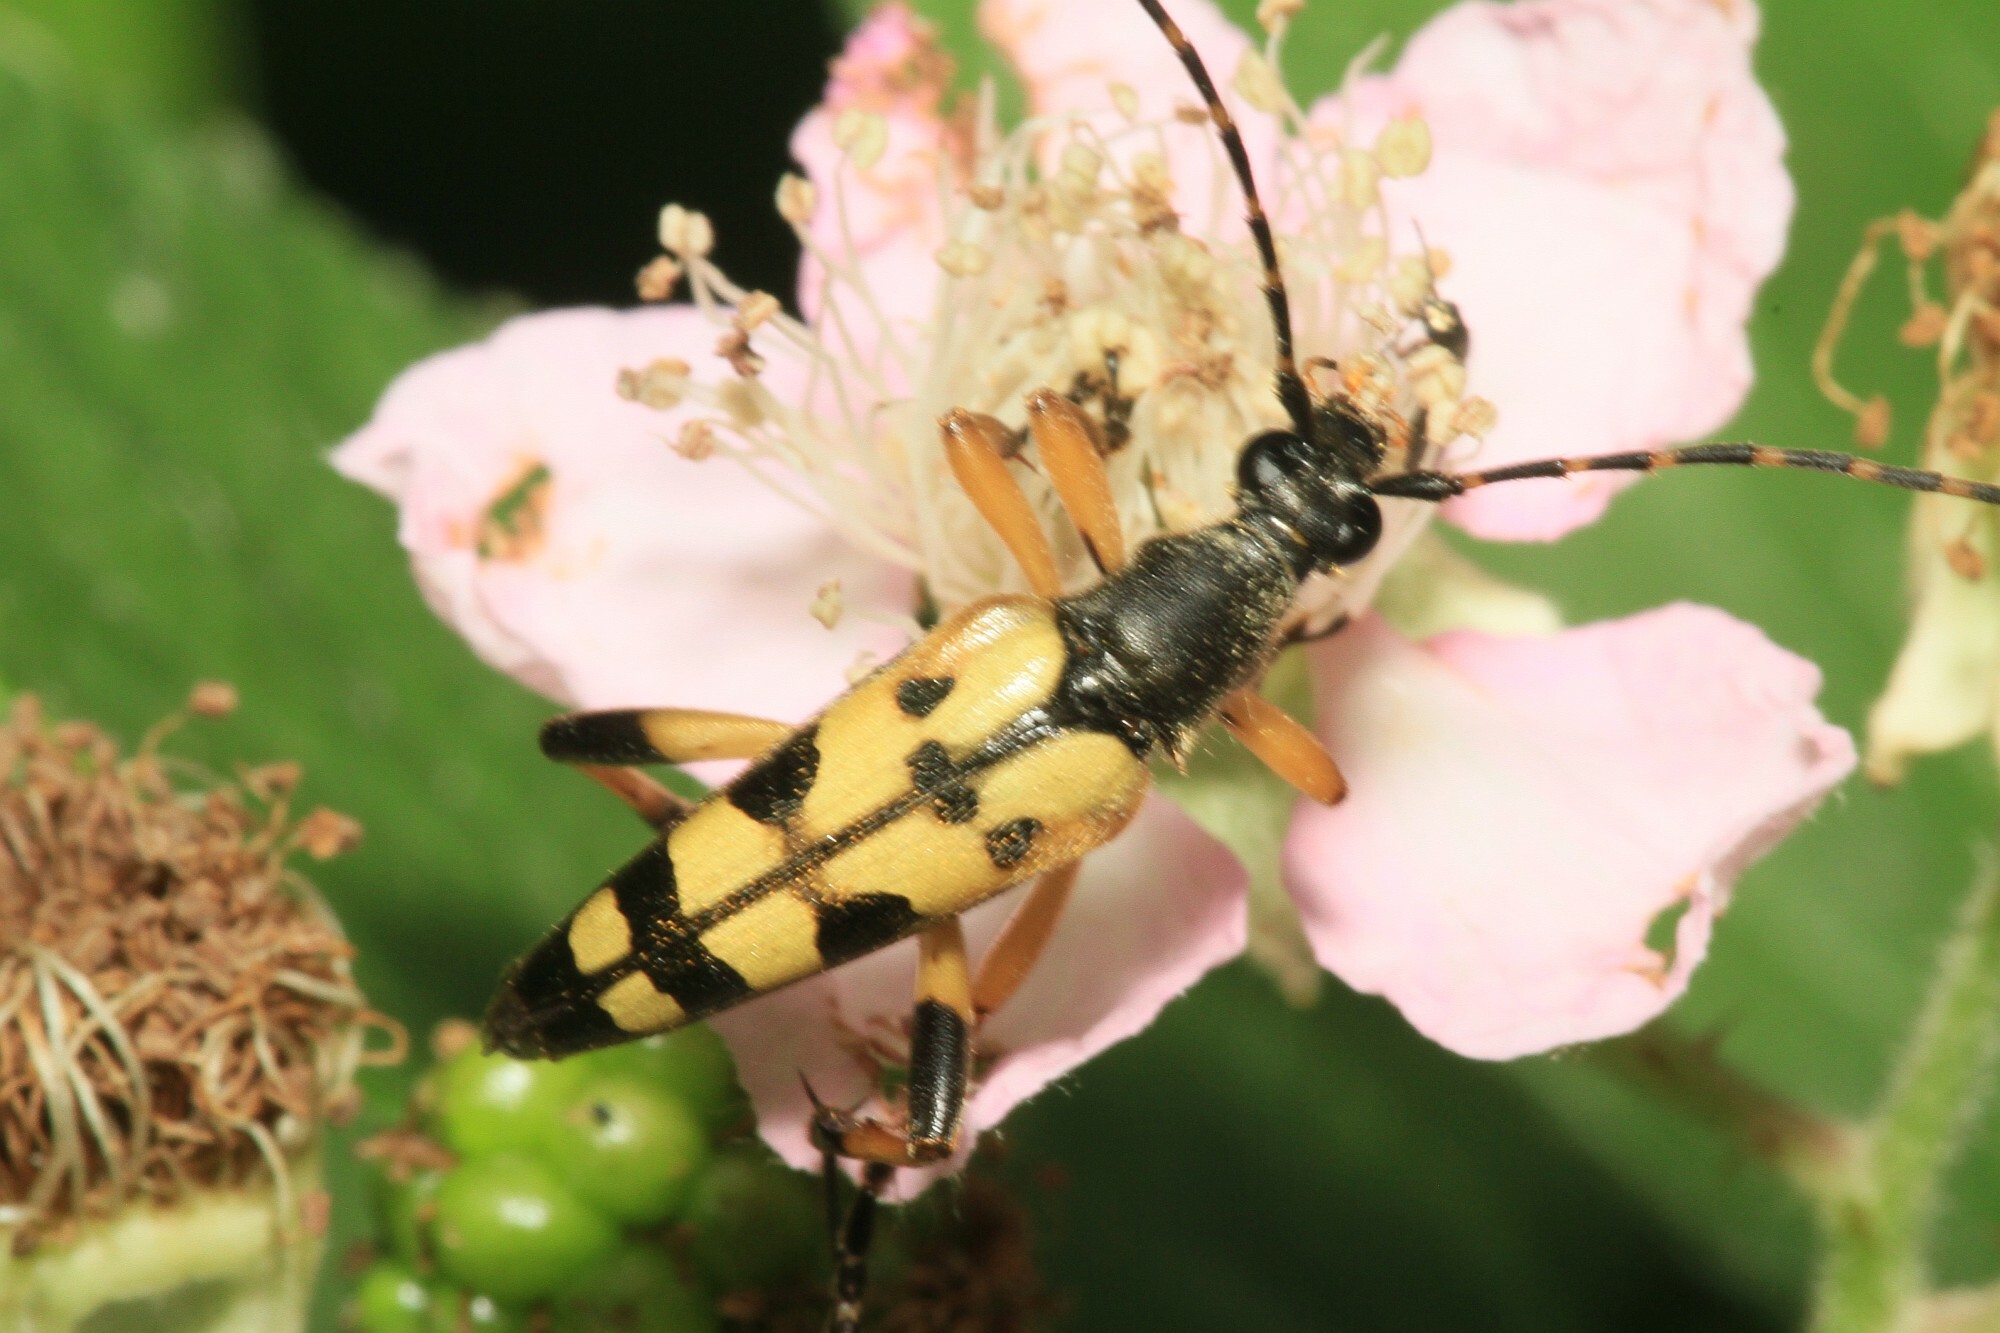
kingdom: Animalia
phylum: Arthropoda
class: Insecta
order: Coleoptera
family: Cerambycidae
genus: Rutpela
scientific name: Rutpela maculata
